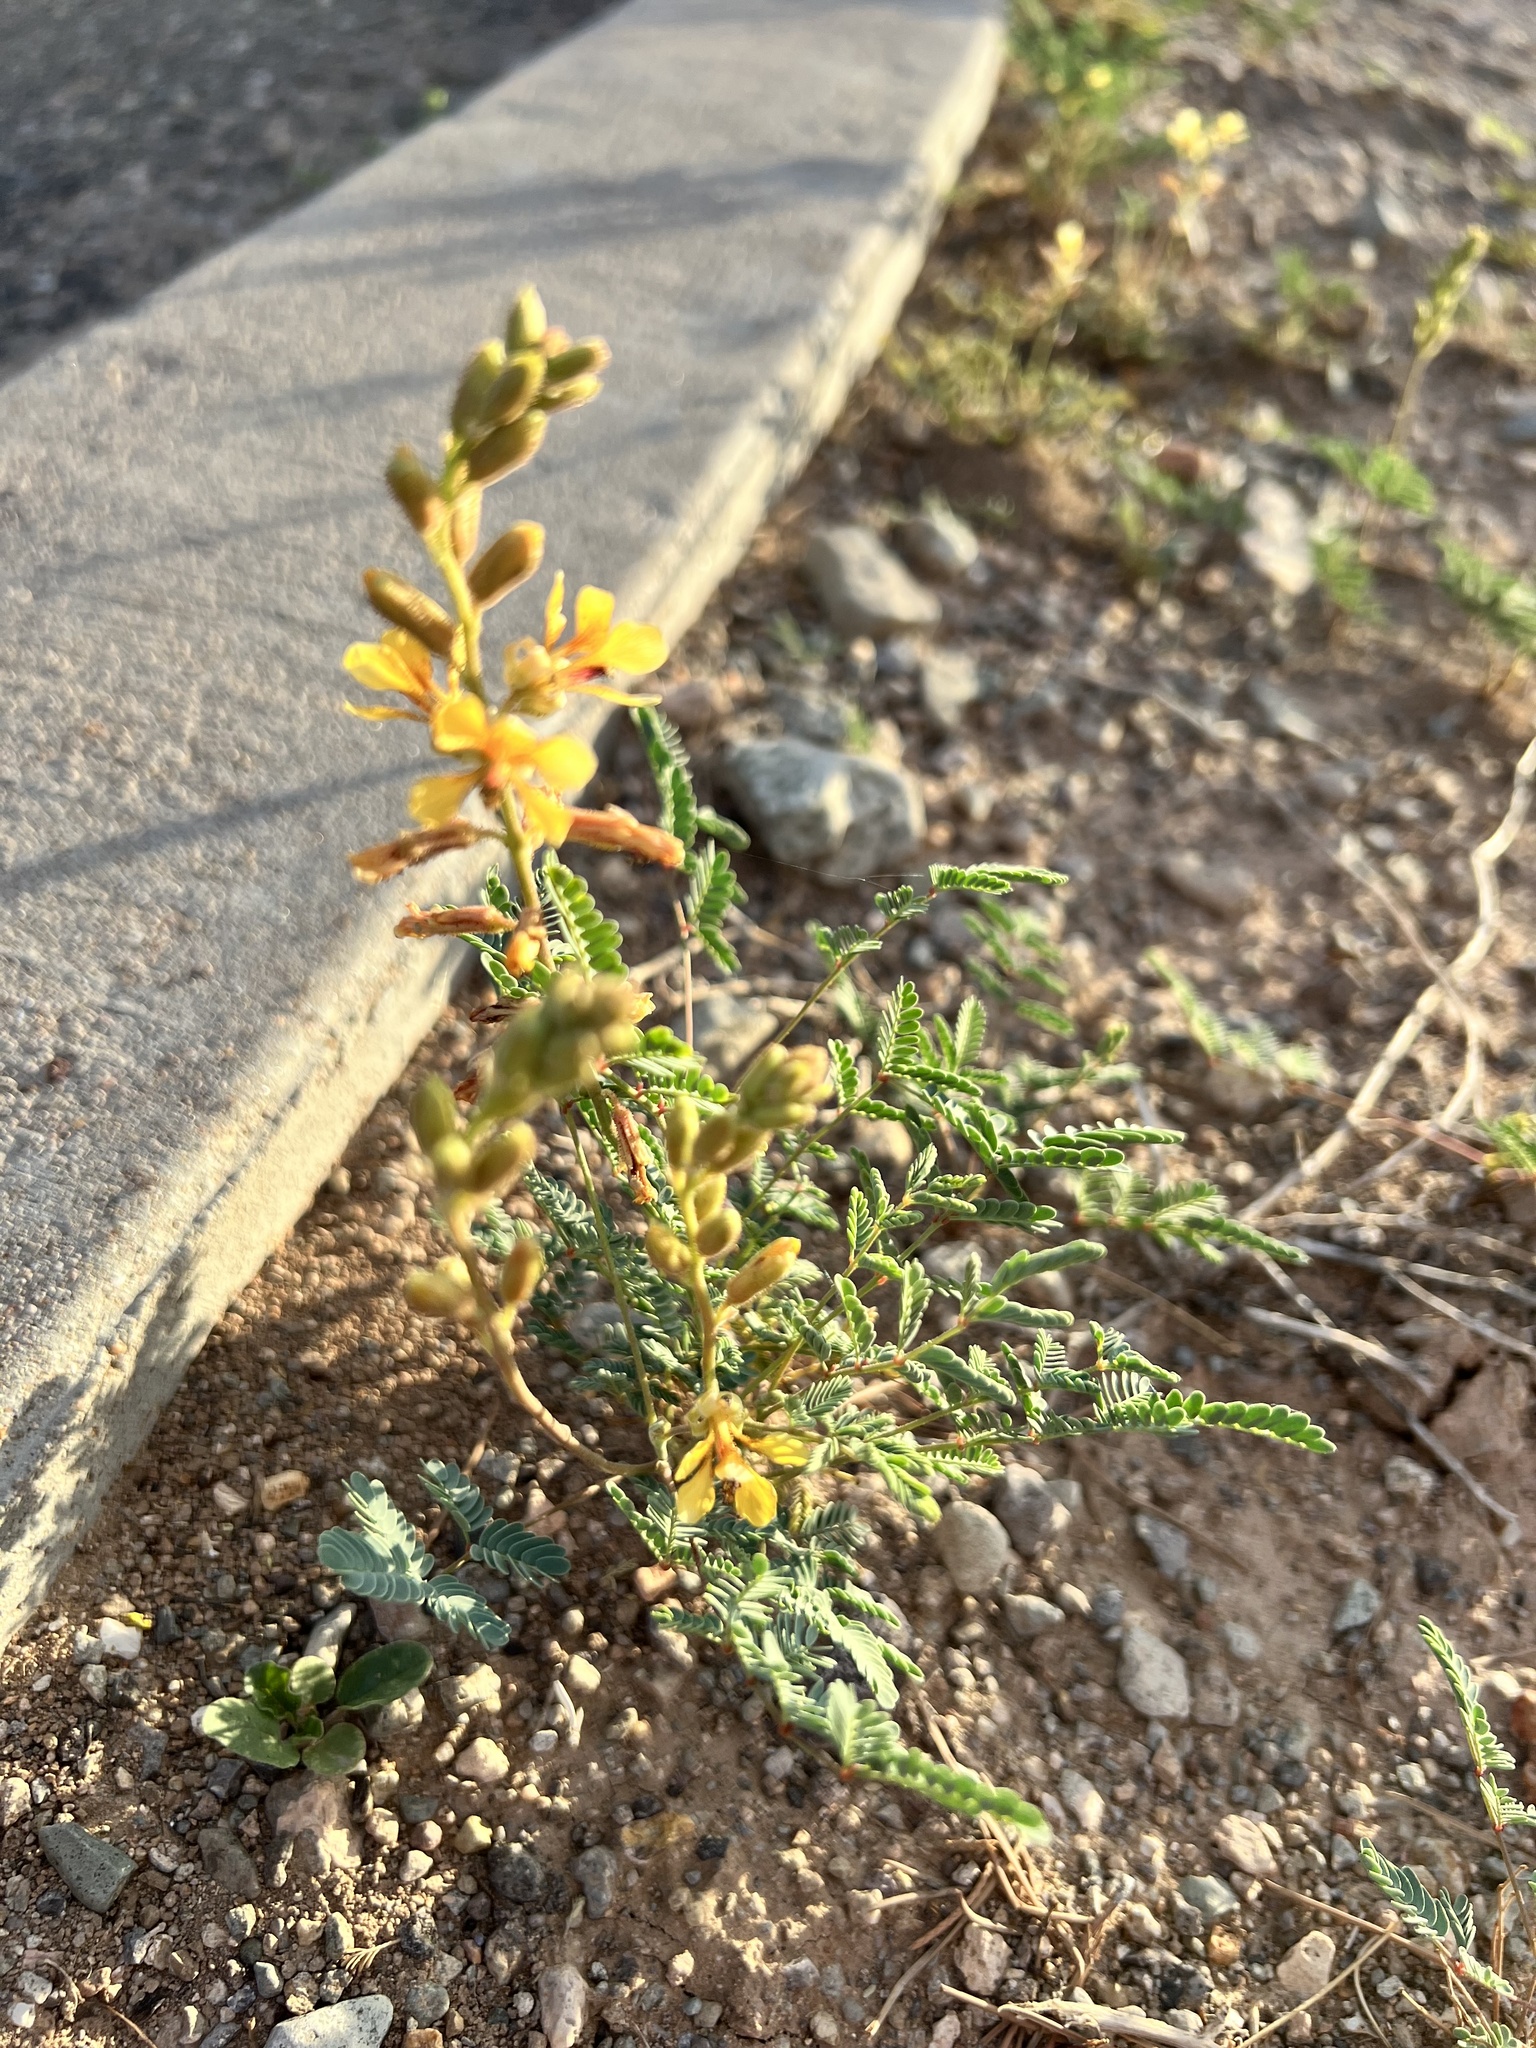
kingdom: Plantae
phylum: Tracheophyta
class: Magnoliopsida
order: Fabales
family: Fabaceae
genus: Hoffmannseggia
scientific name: Hoffmannseggia glauca
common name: Pignut
